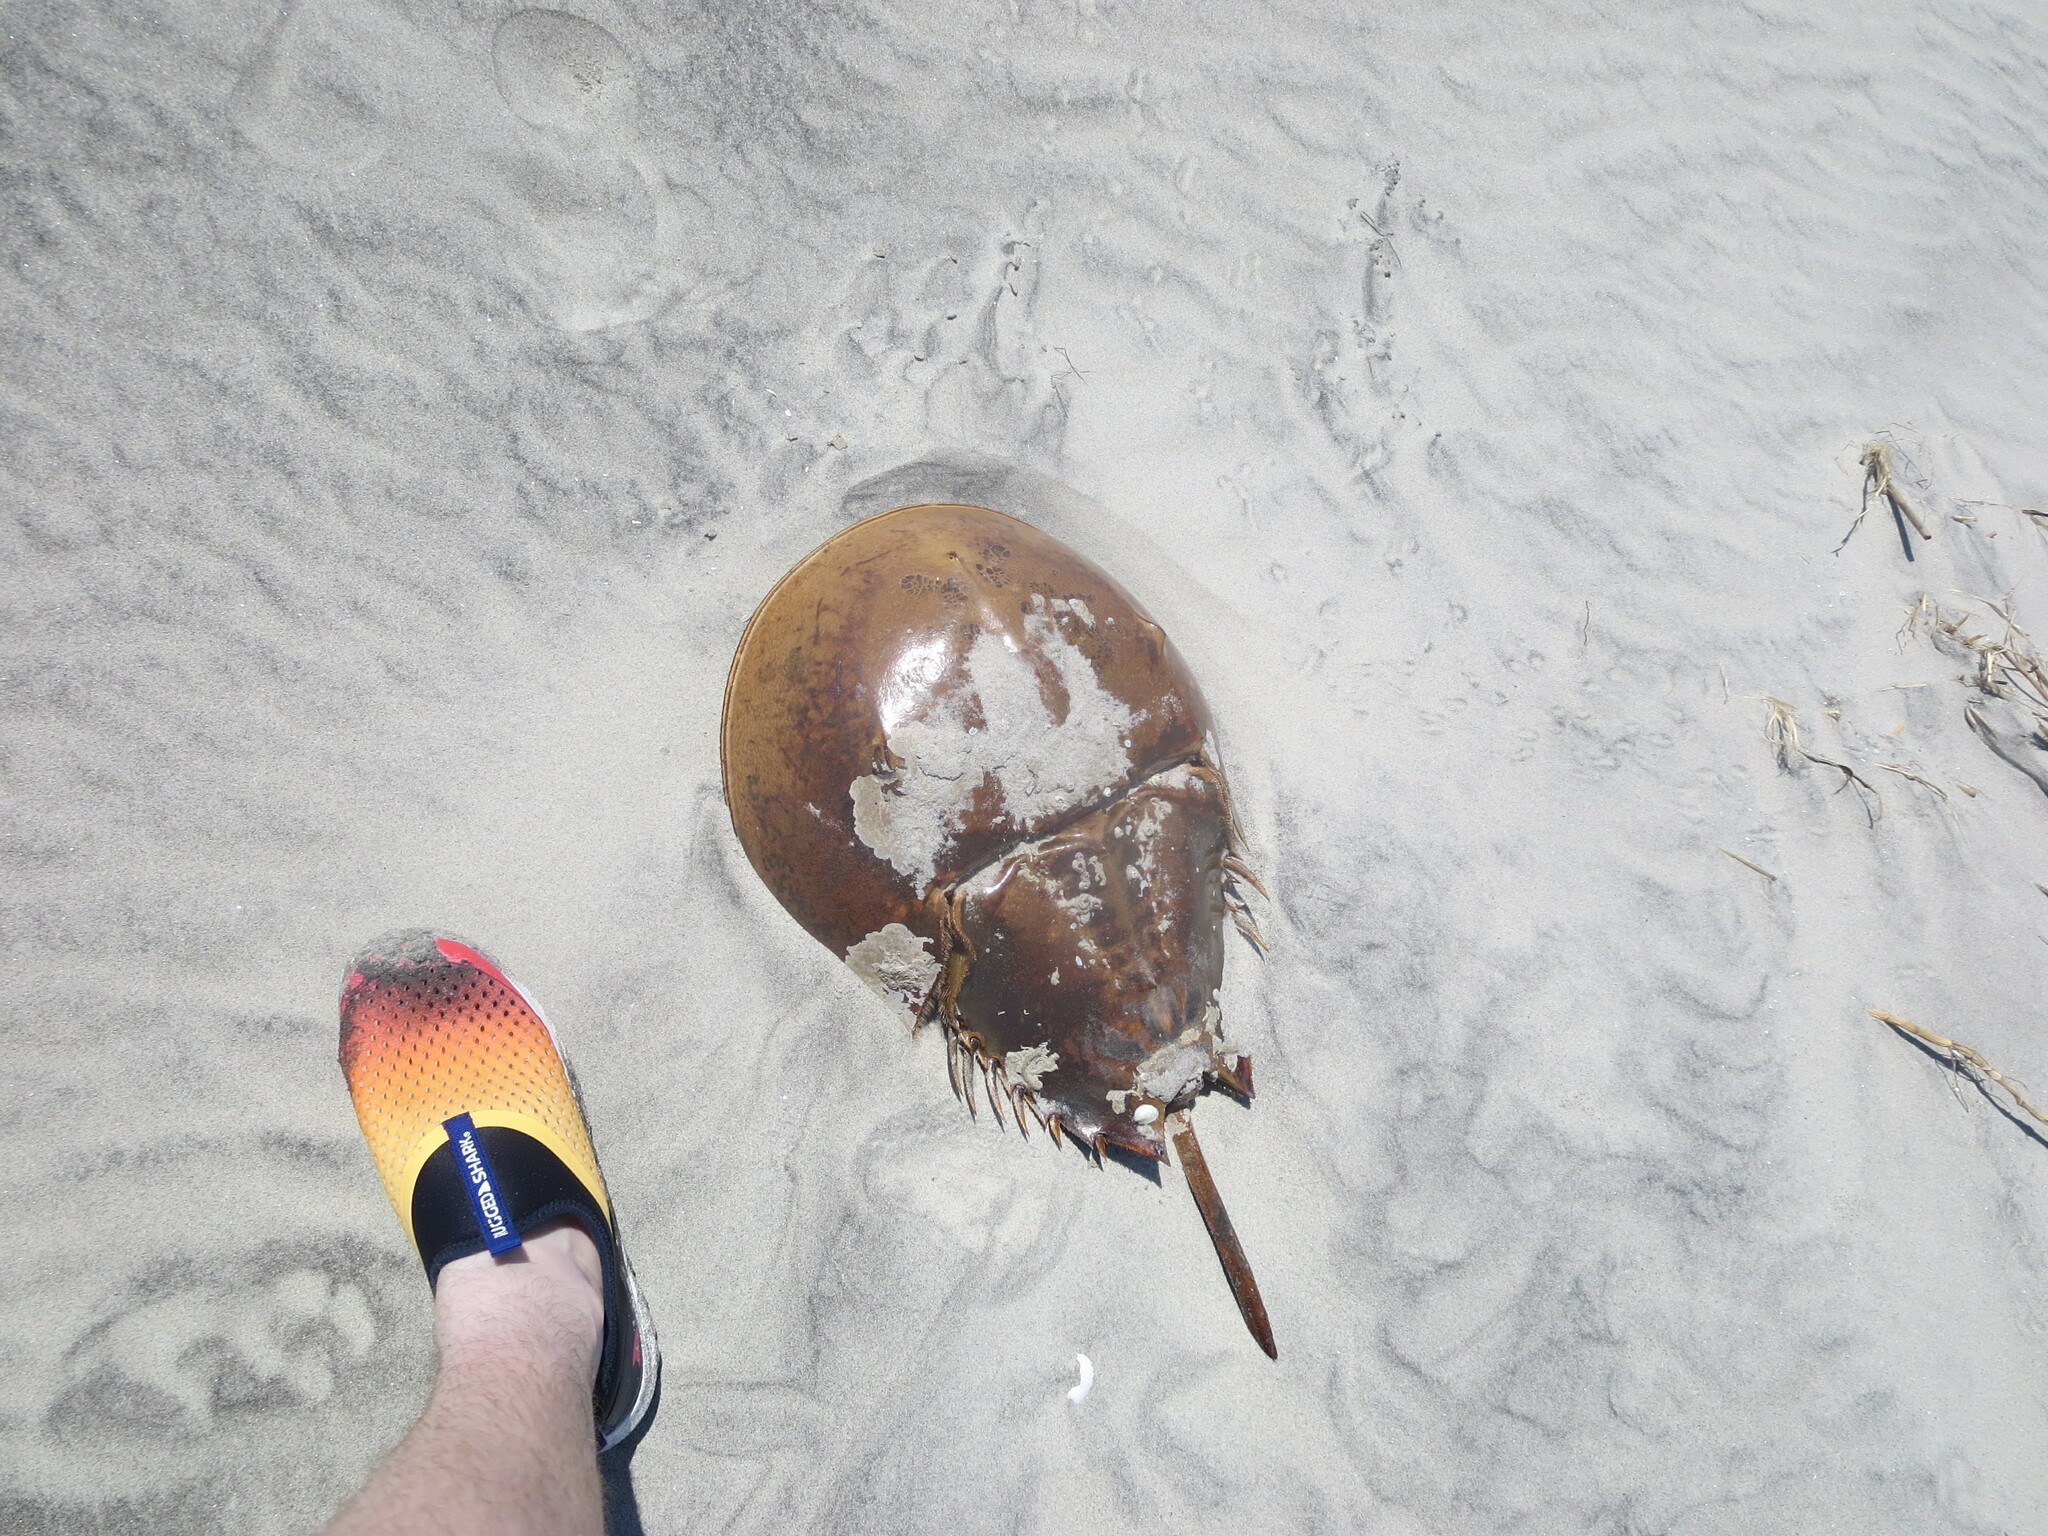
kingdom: Animalia
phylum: Arthropoda
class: Merostomata
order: Xiphosurida
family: Limulidae
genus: Limulus
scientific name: Limulus polyphemus
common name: Horseshoe crab
